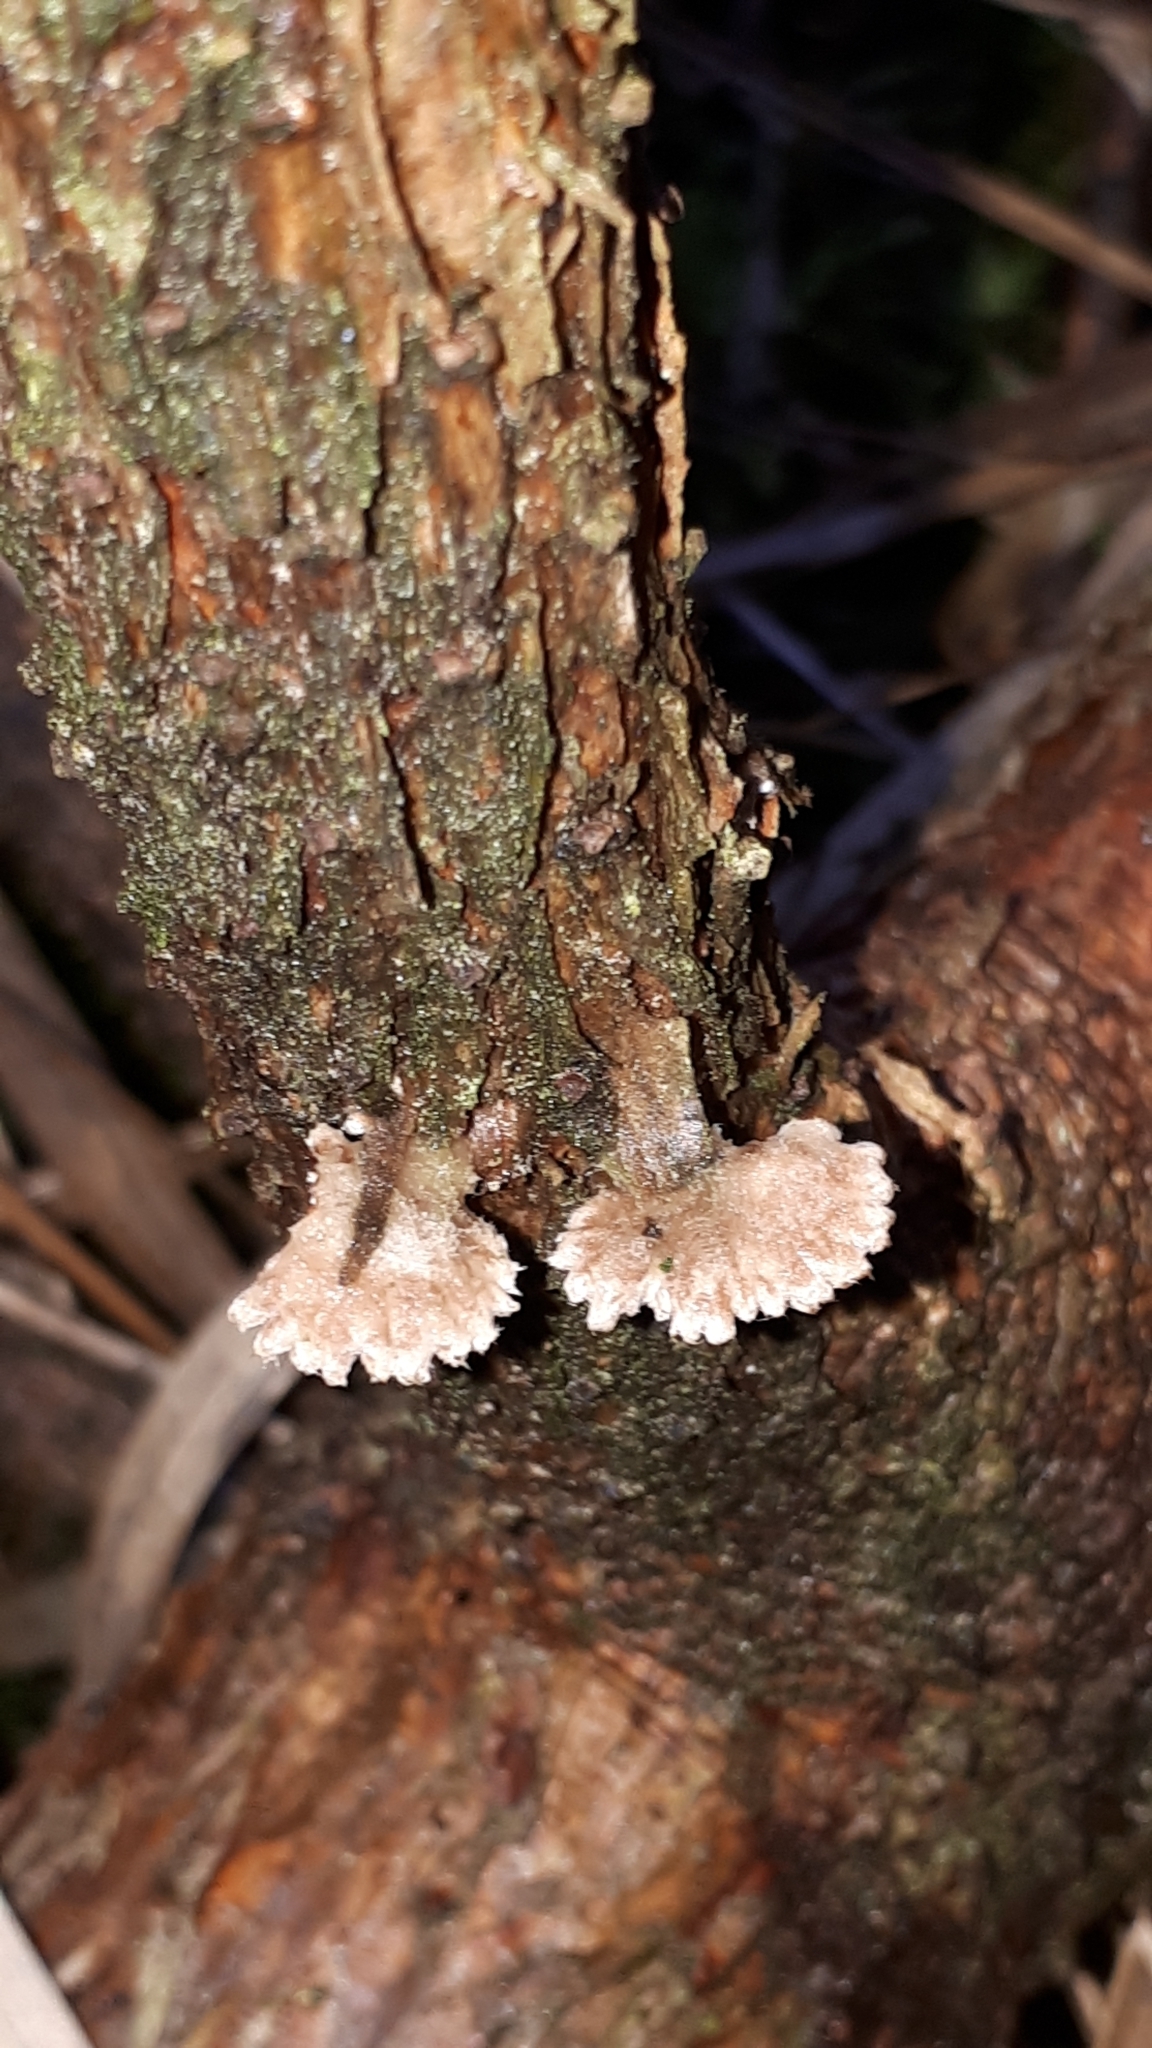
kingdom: Fungi
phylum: Basidiomycota
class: Agaricomycetes
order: Agaricales
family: Schizophyllaceae
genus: Schizophyllum
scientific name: Schizophyllum commune
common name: Common porecrust
